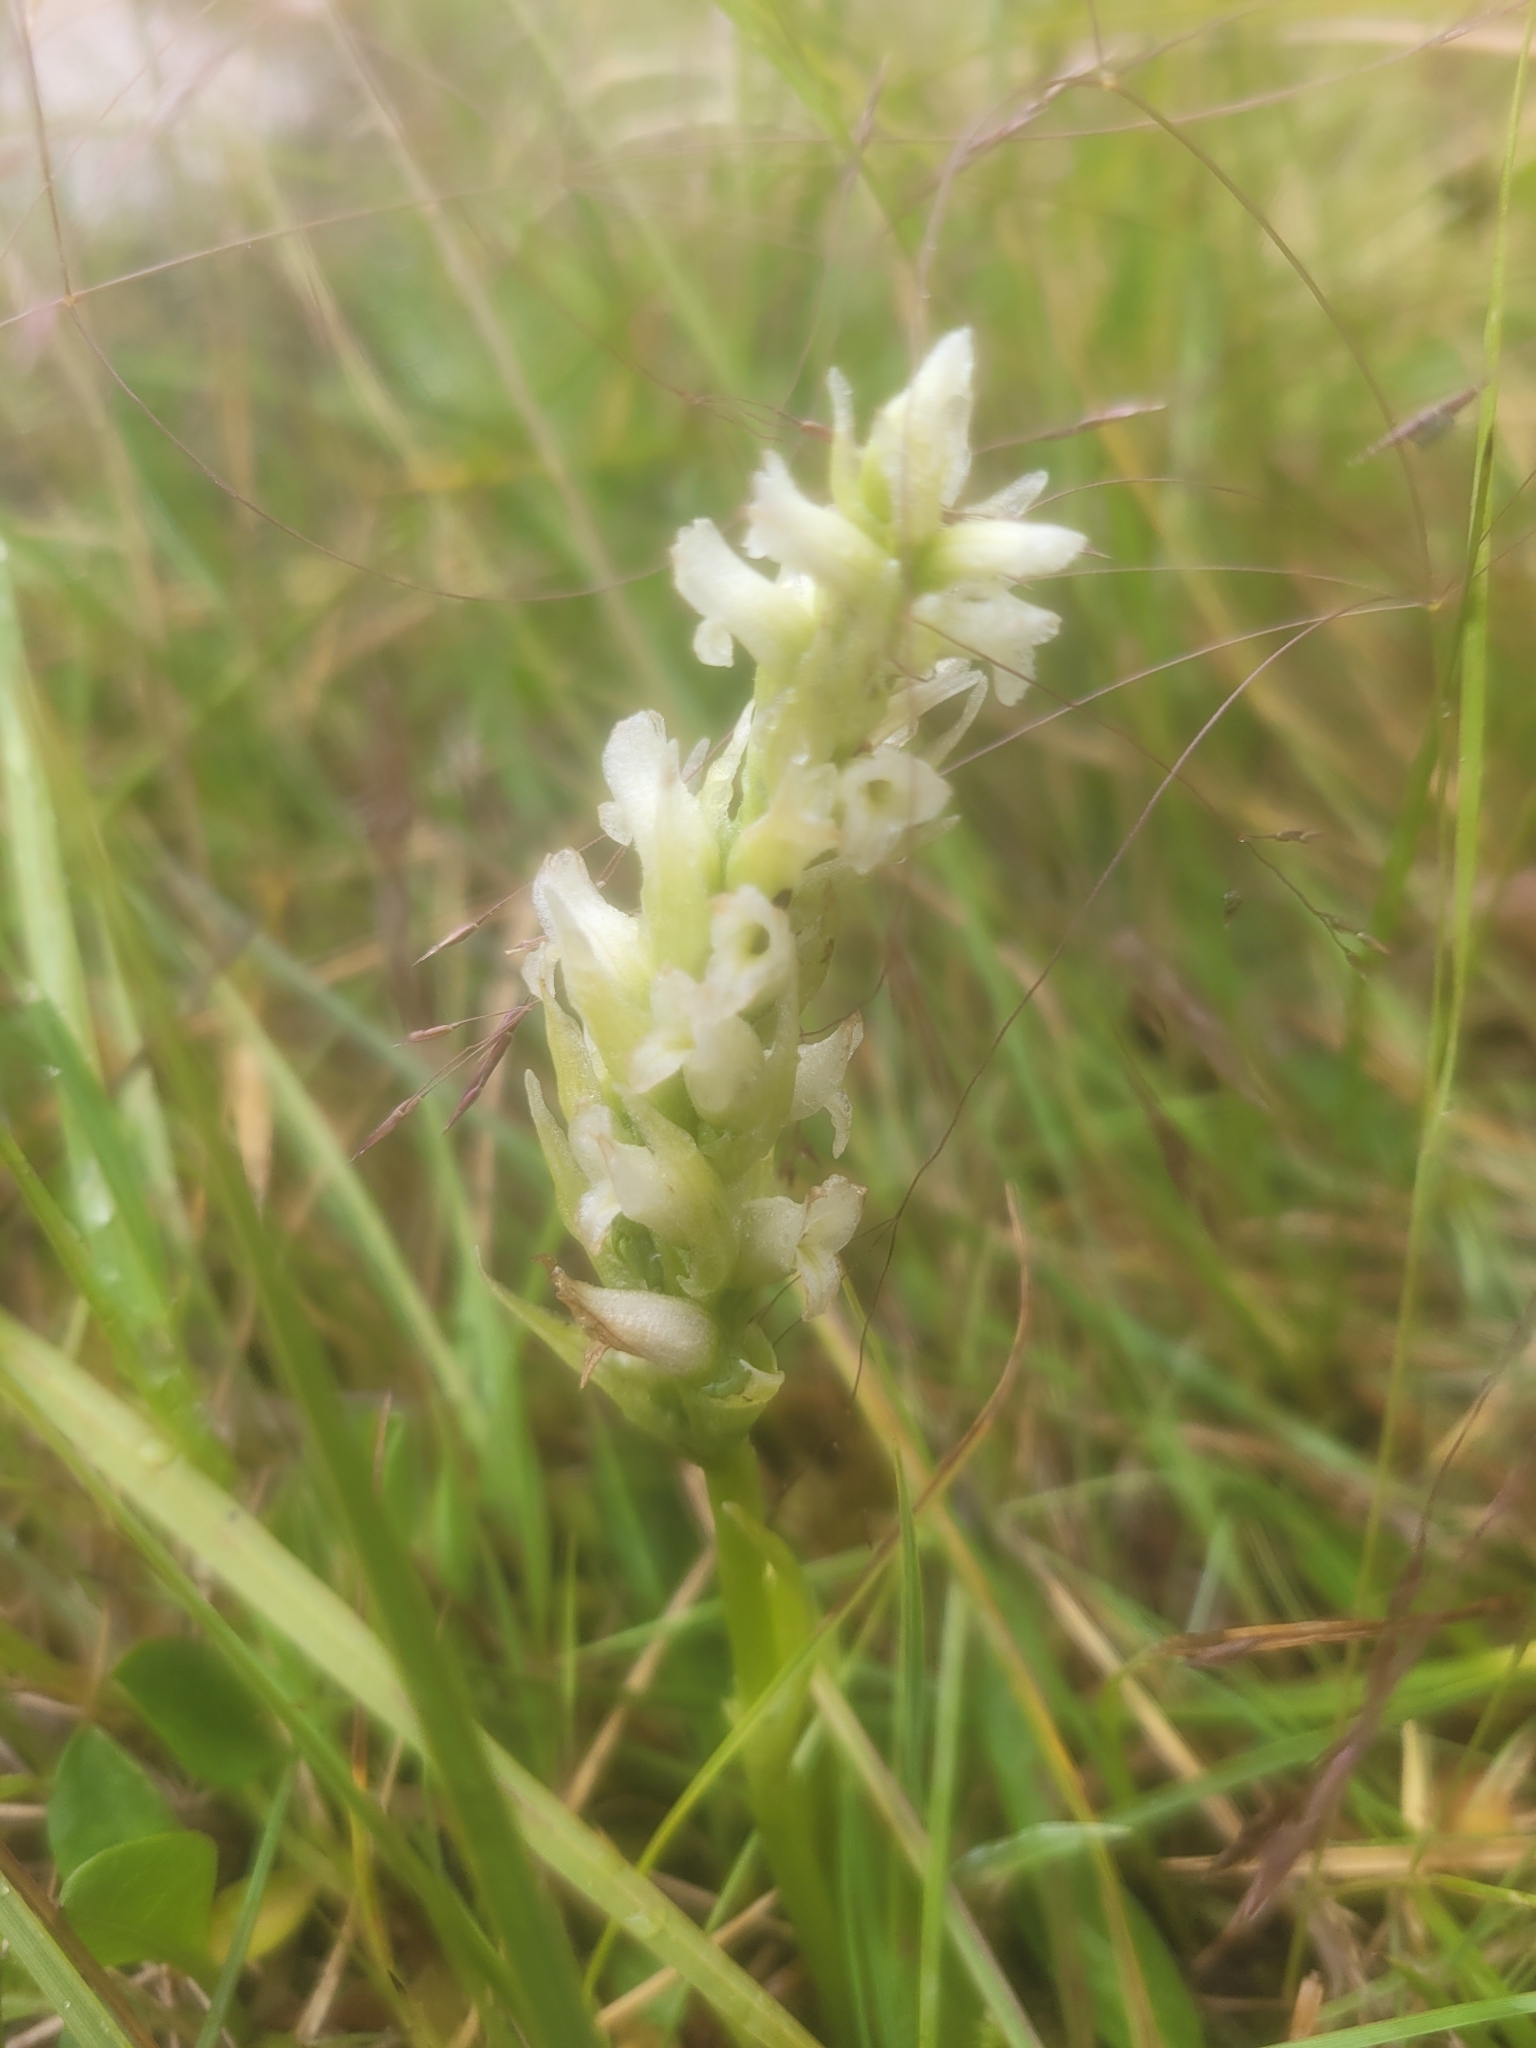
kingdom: Plantae
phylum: Tracheophyta
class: Liliopsida
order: Asparagales
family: Orchidaceae
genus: Spiranthes
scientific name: Spiranthes romanzoffiana
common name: Irish lady's-tresses
